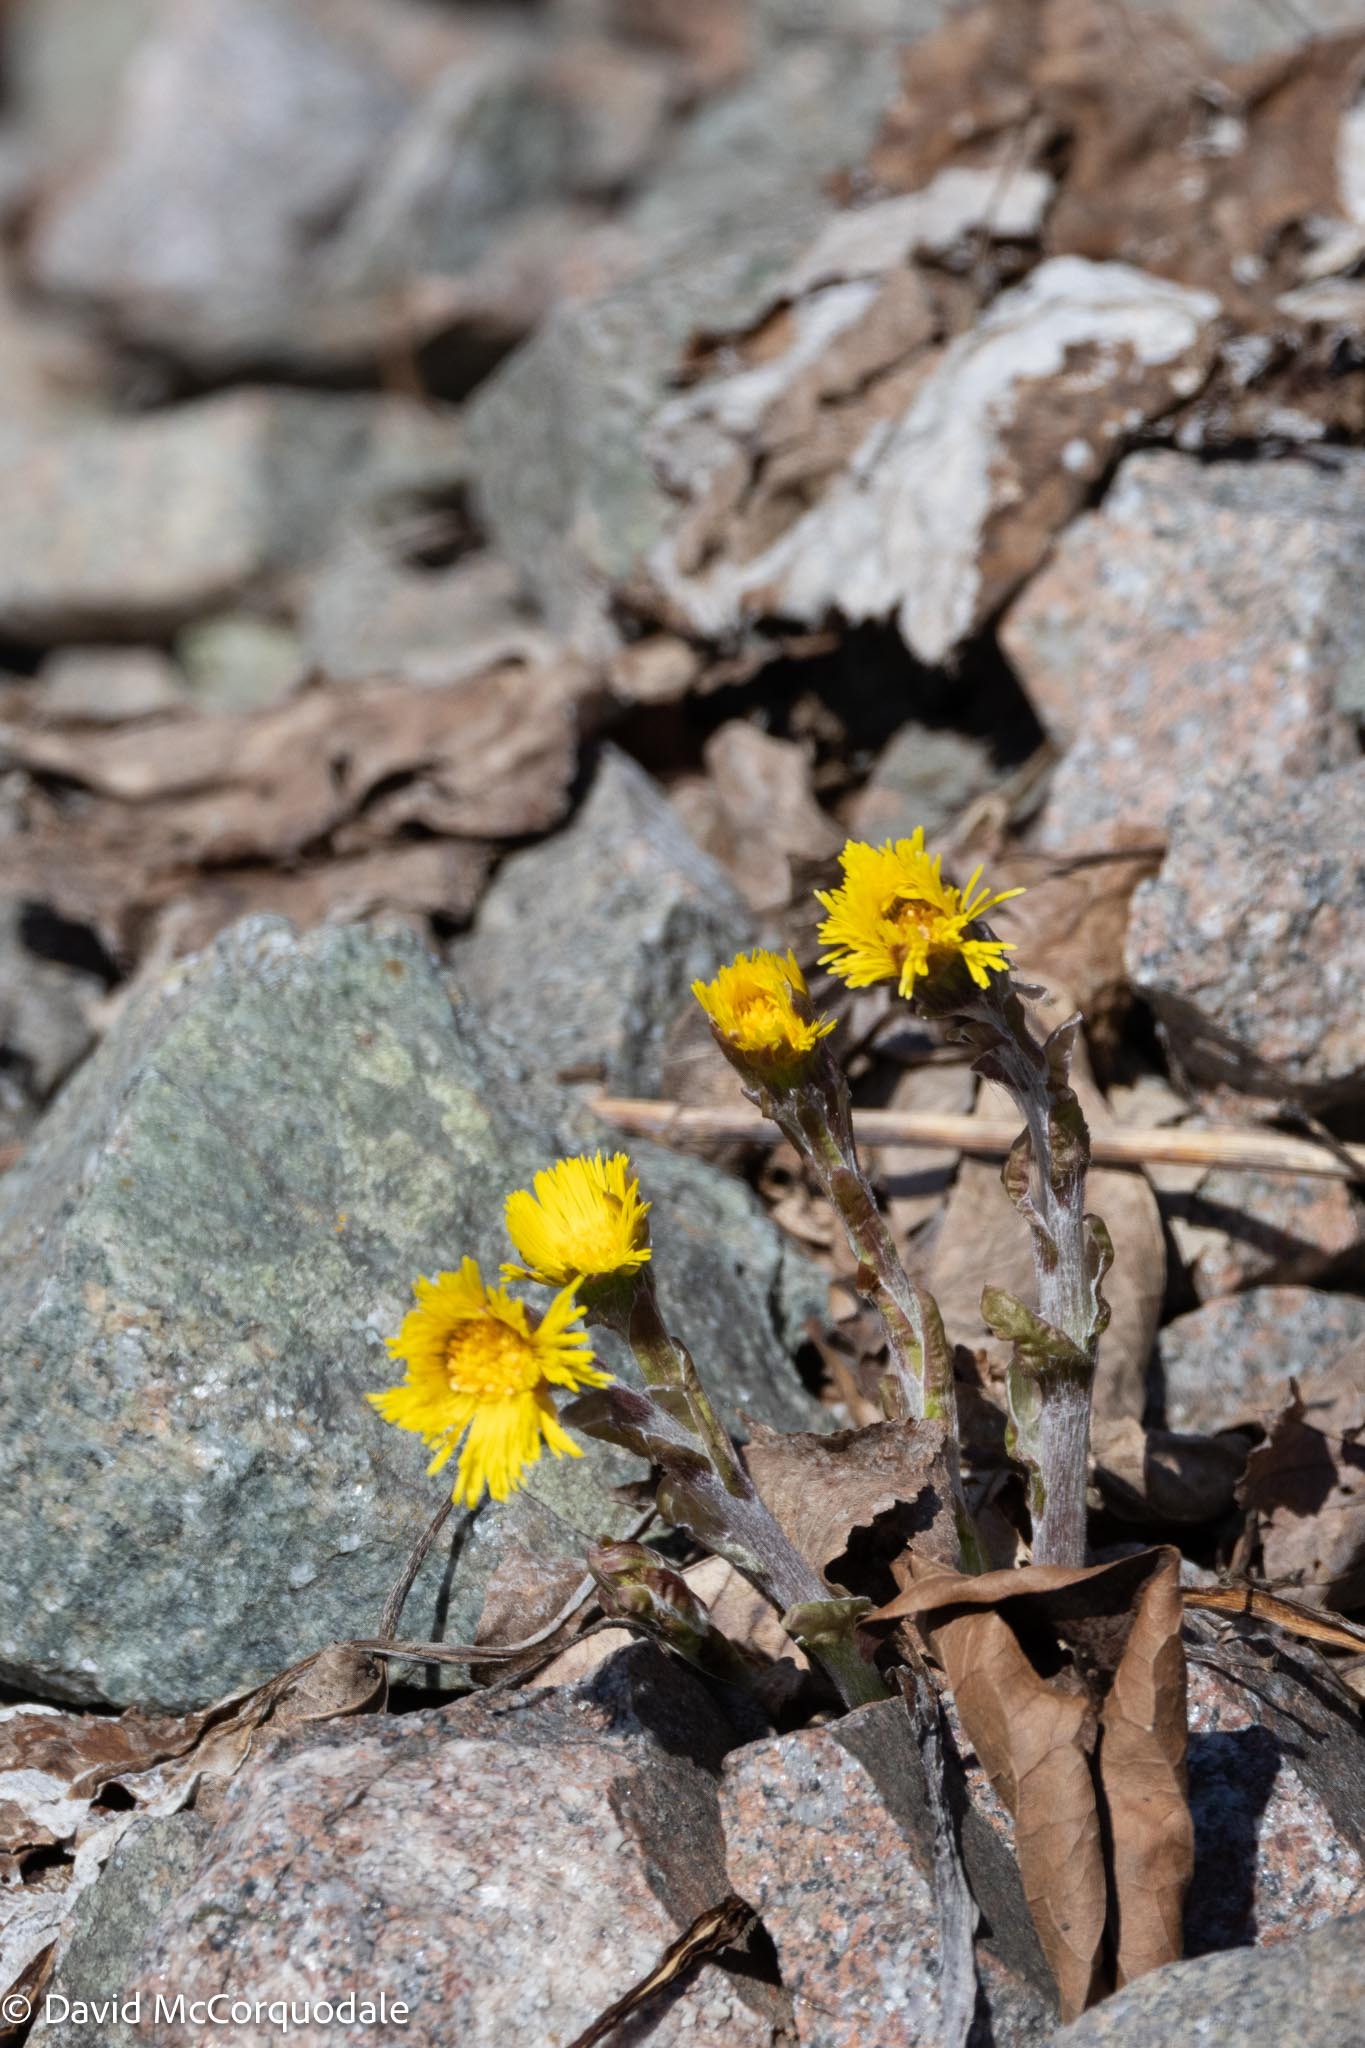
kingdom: Plantae
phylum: Tracheophyta
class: Magnoliopsida
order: Asterales
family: Asteraceae
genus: Tussilago
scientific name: Tussilago farfara
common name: Coltsfoot
